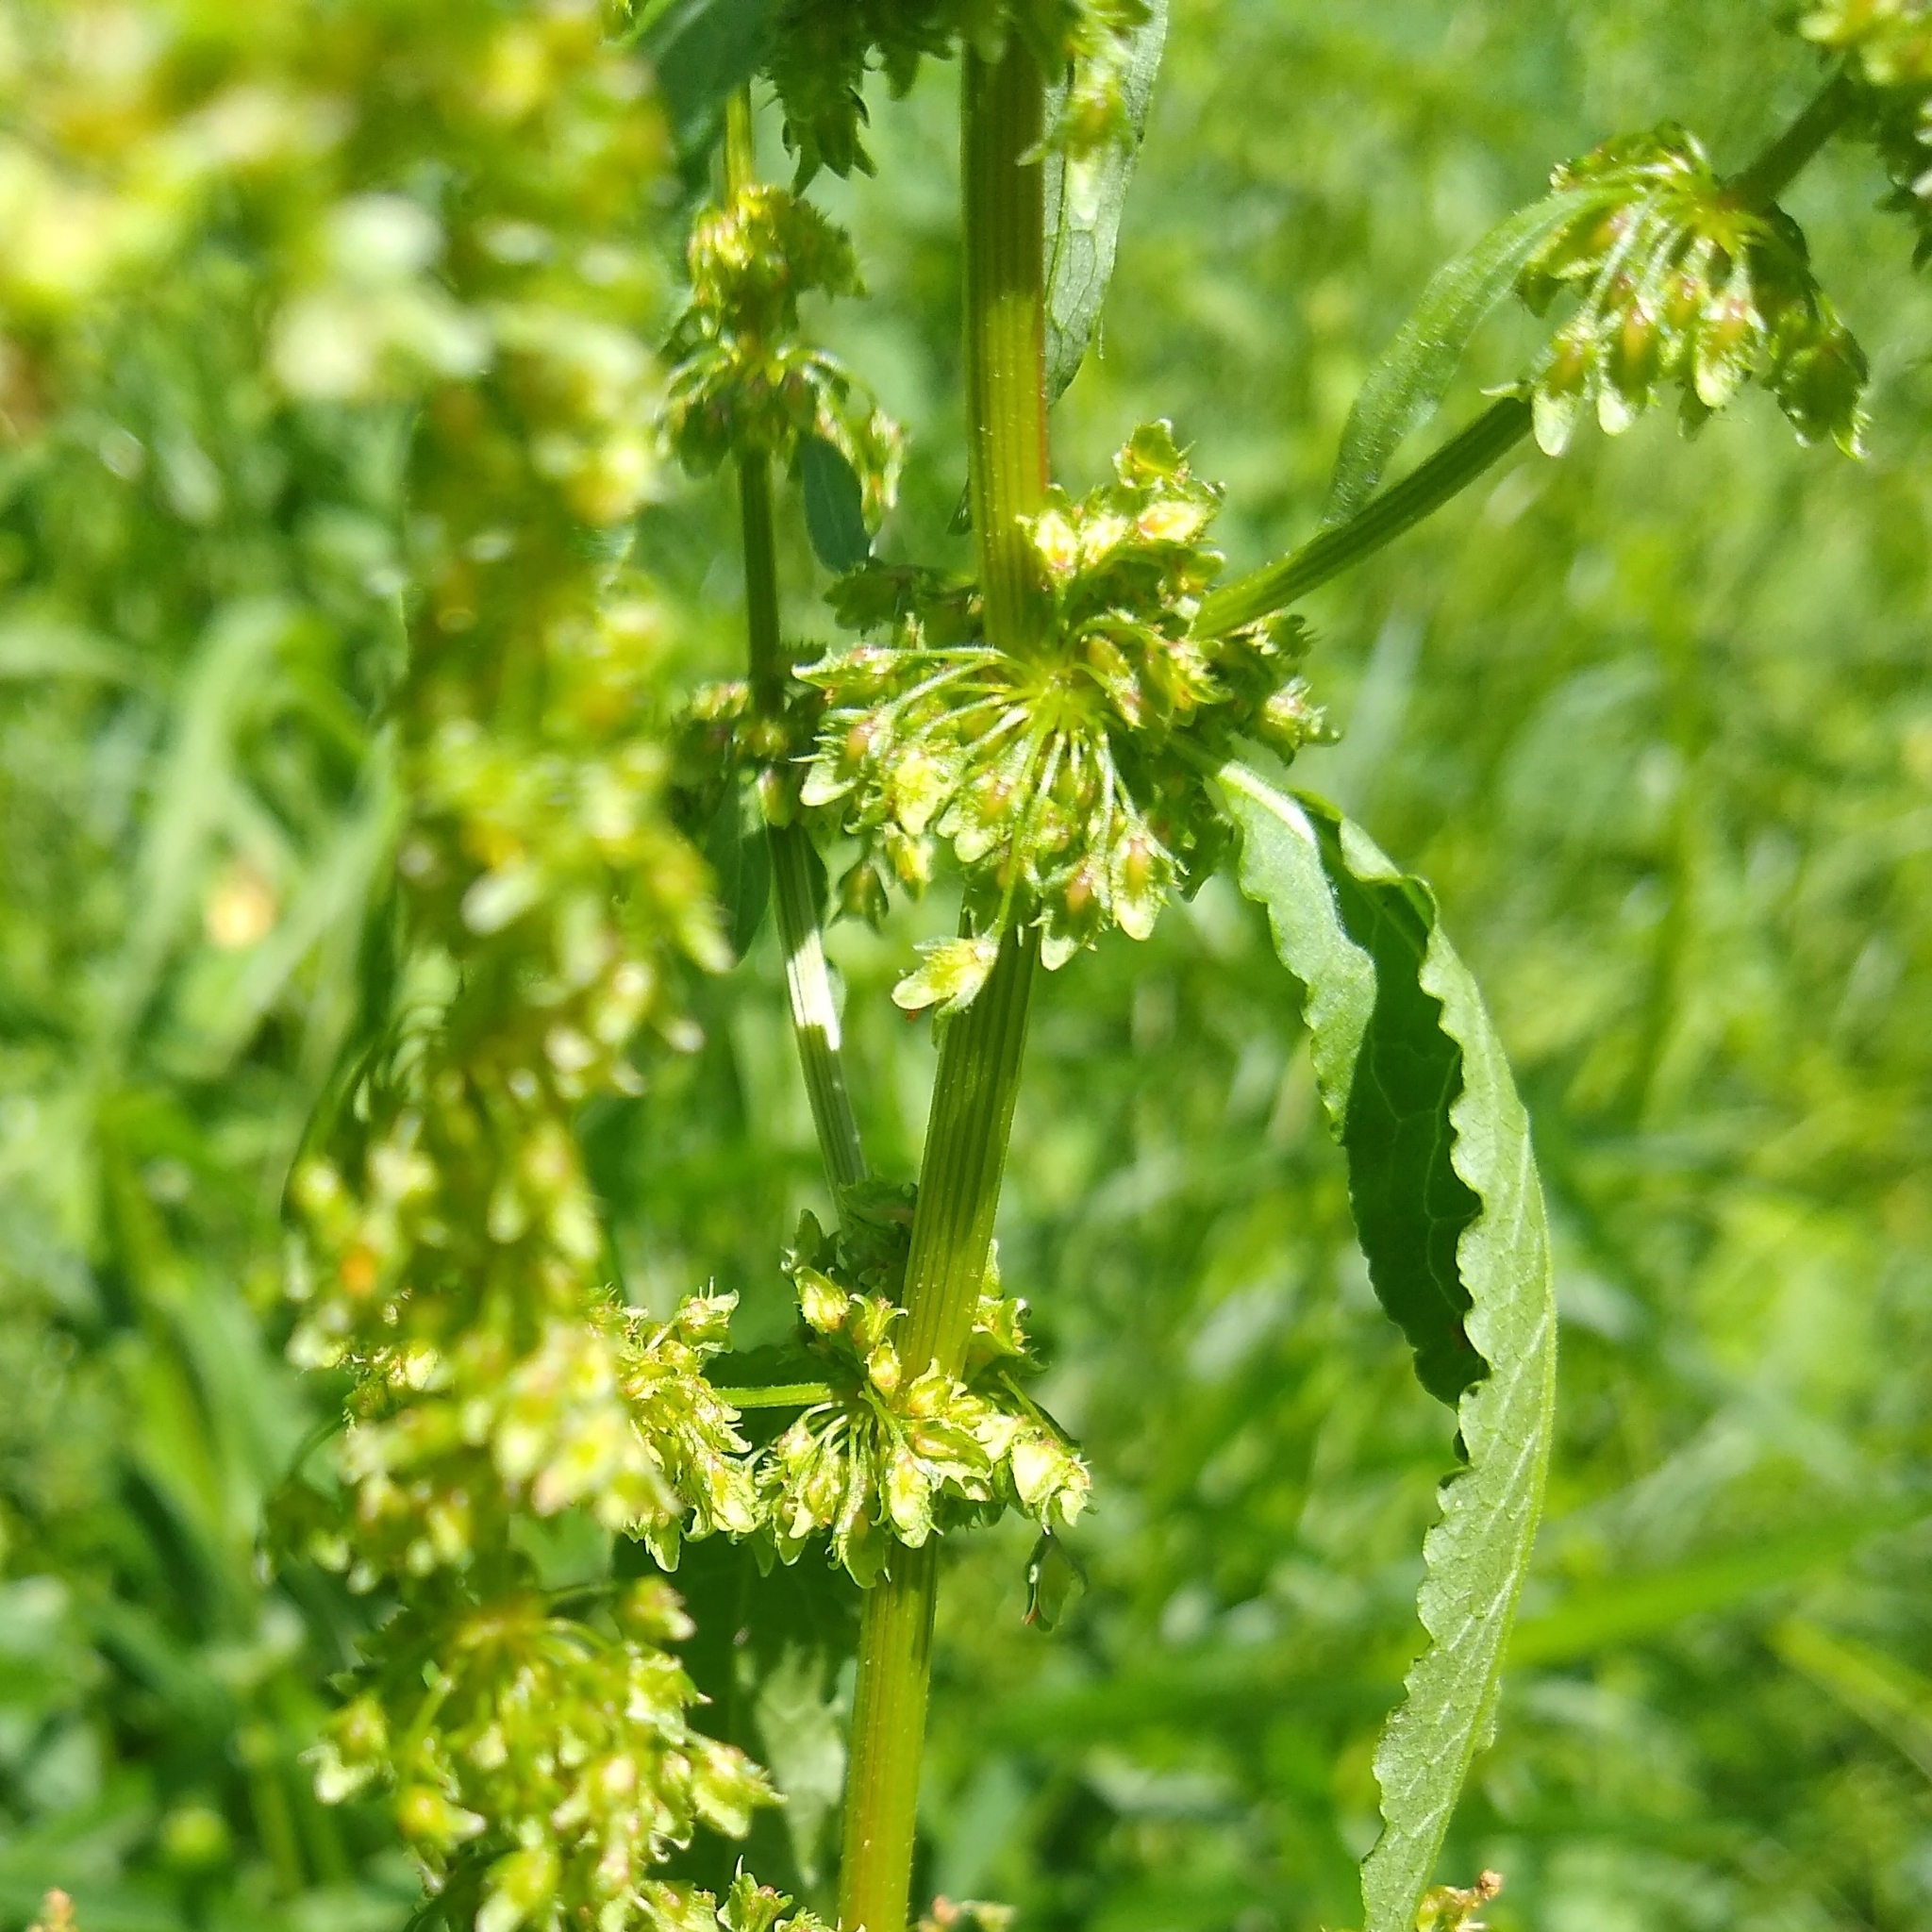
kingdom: Plantae
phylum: Tracheophyta
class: Magnoliopsida
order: Caryophyllales
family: Polygonaceae
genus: Rumex
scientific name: Rumex obtusifolius
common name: Bitter dock
